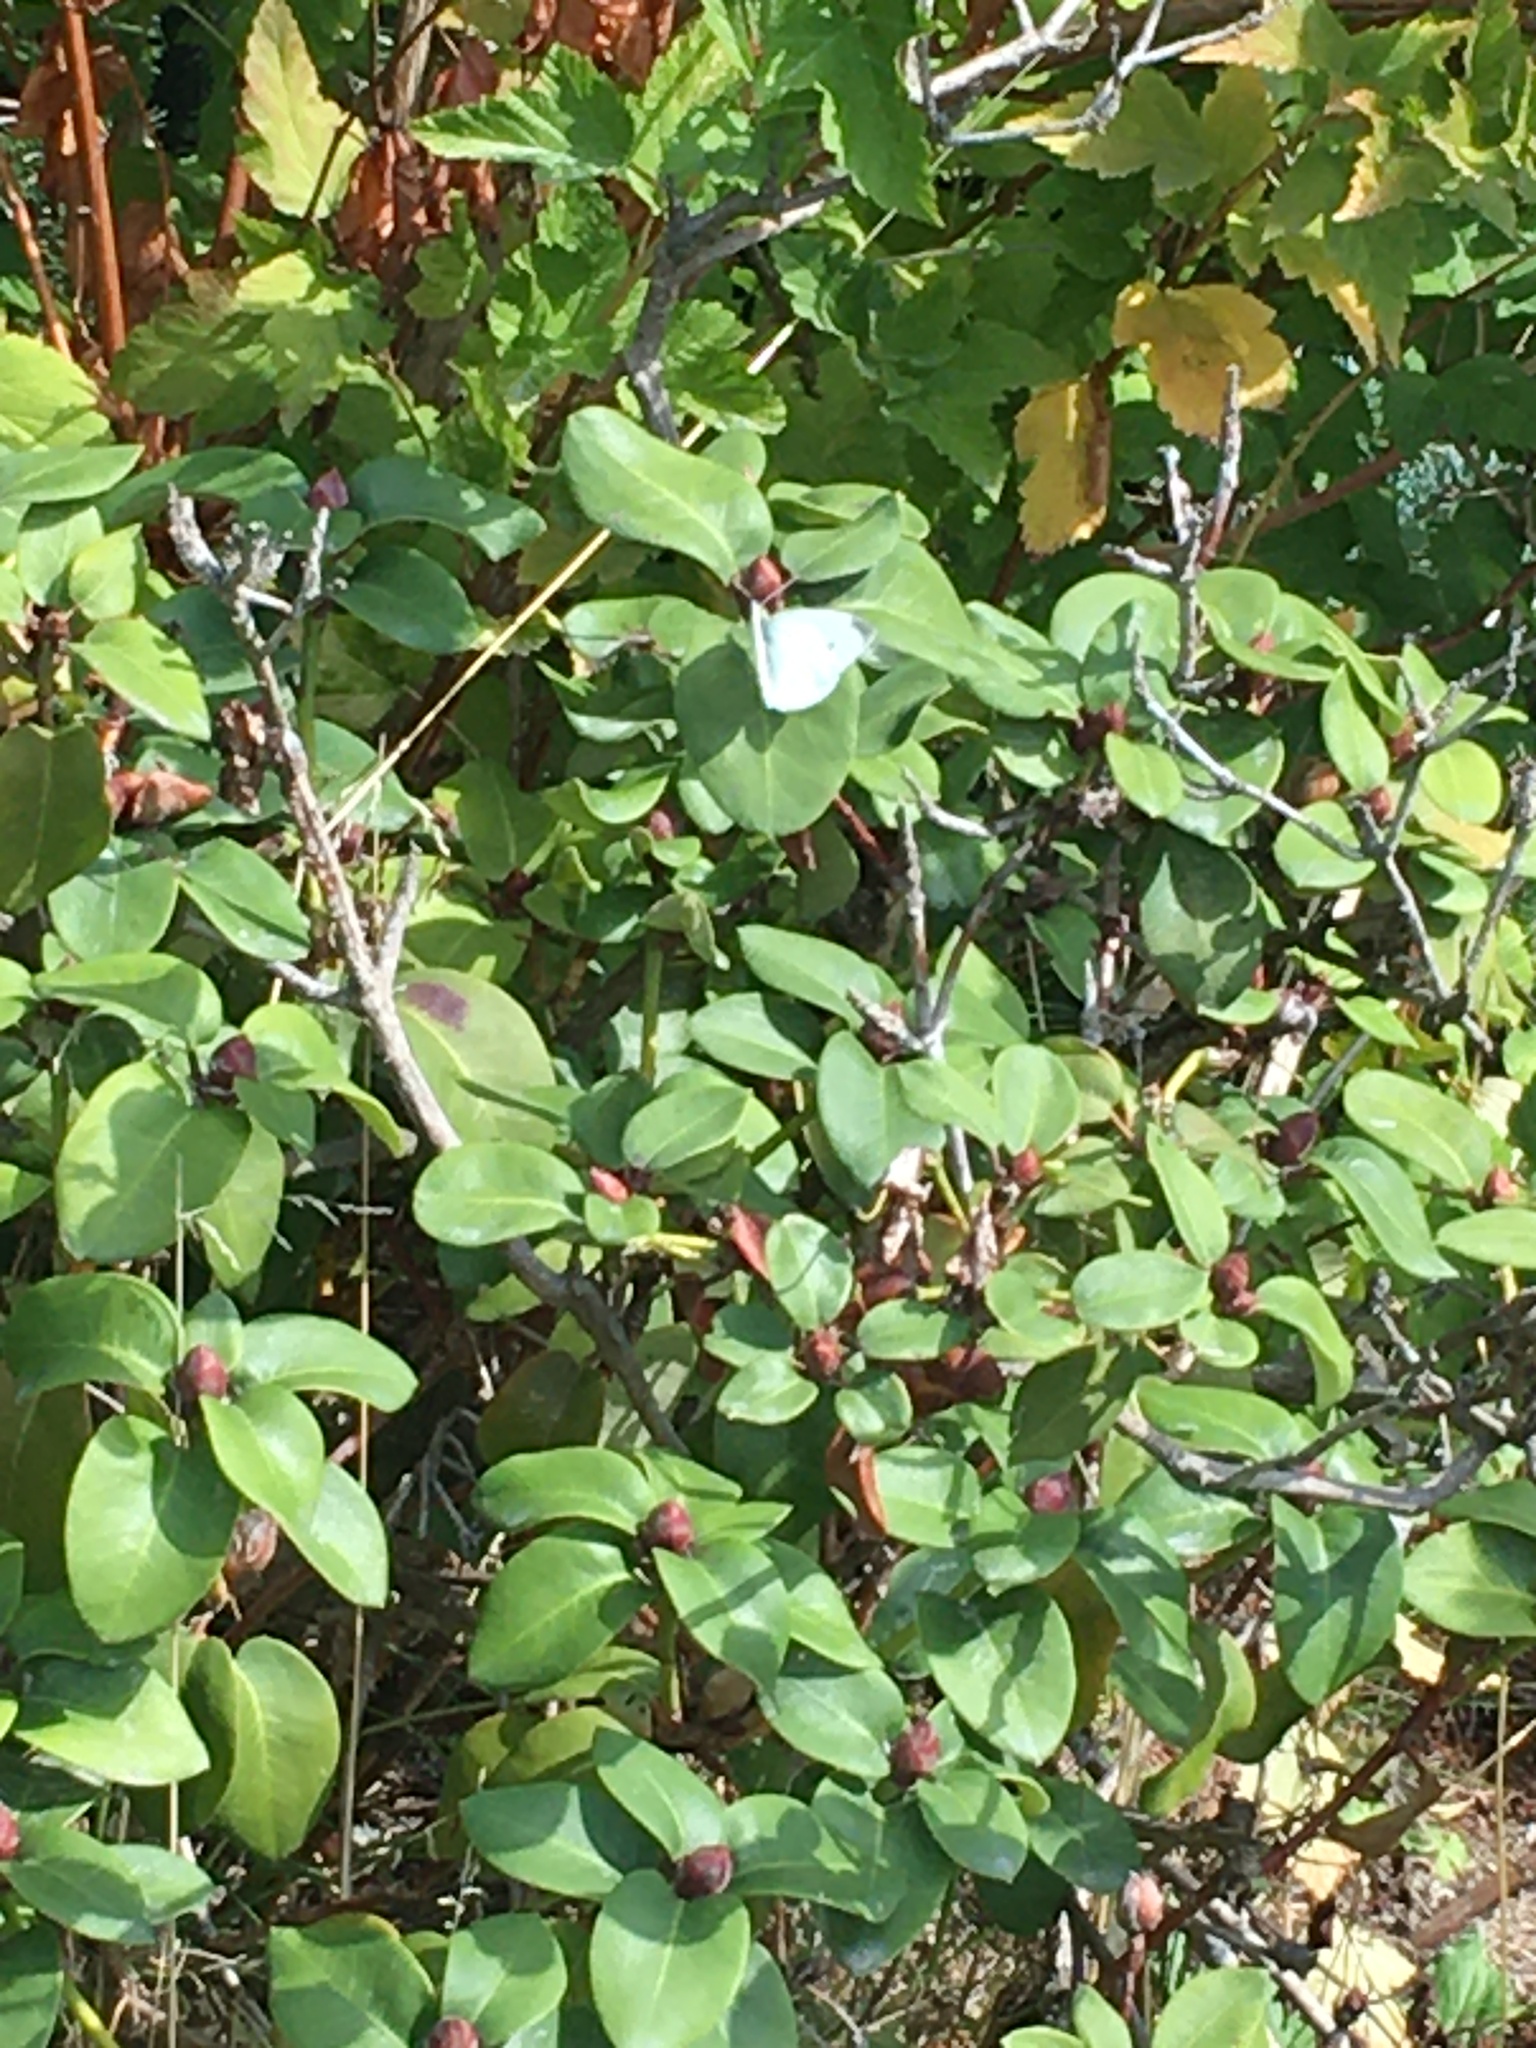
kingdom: Animalia
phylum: Arthropoda
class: Insecta
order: Lepidoptera
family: Pieridae
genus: Pieris
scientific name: Pieris rapae
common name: Small white
